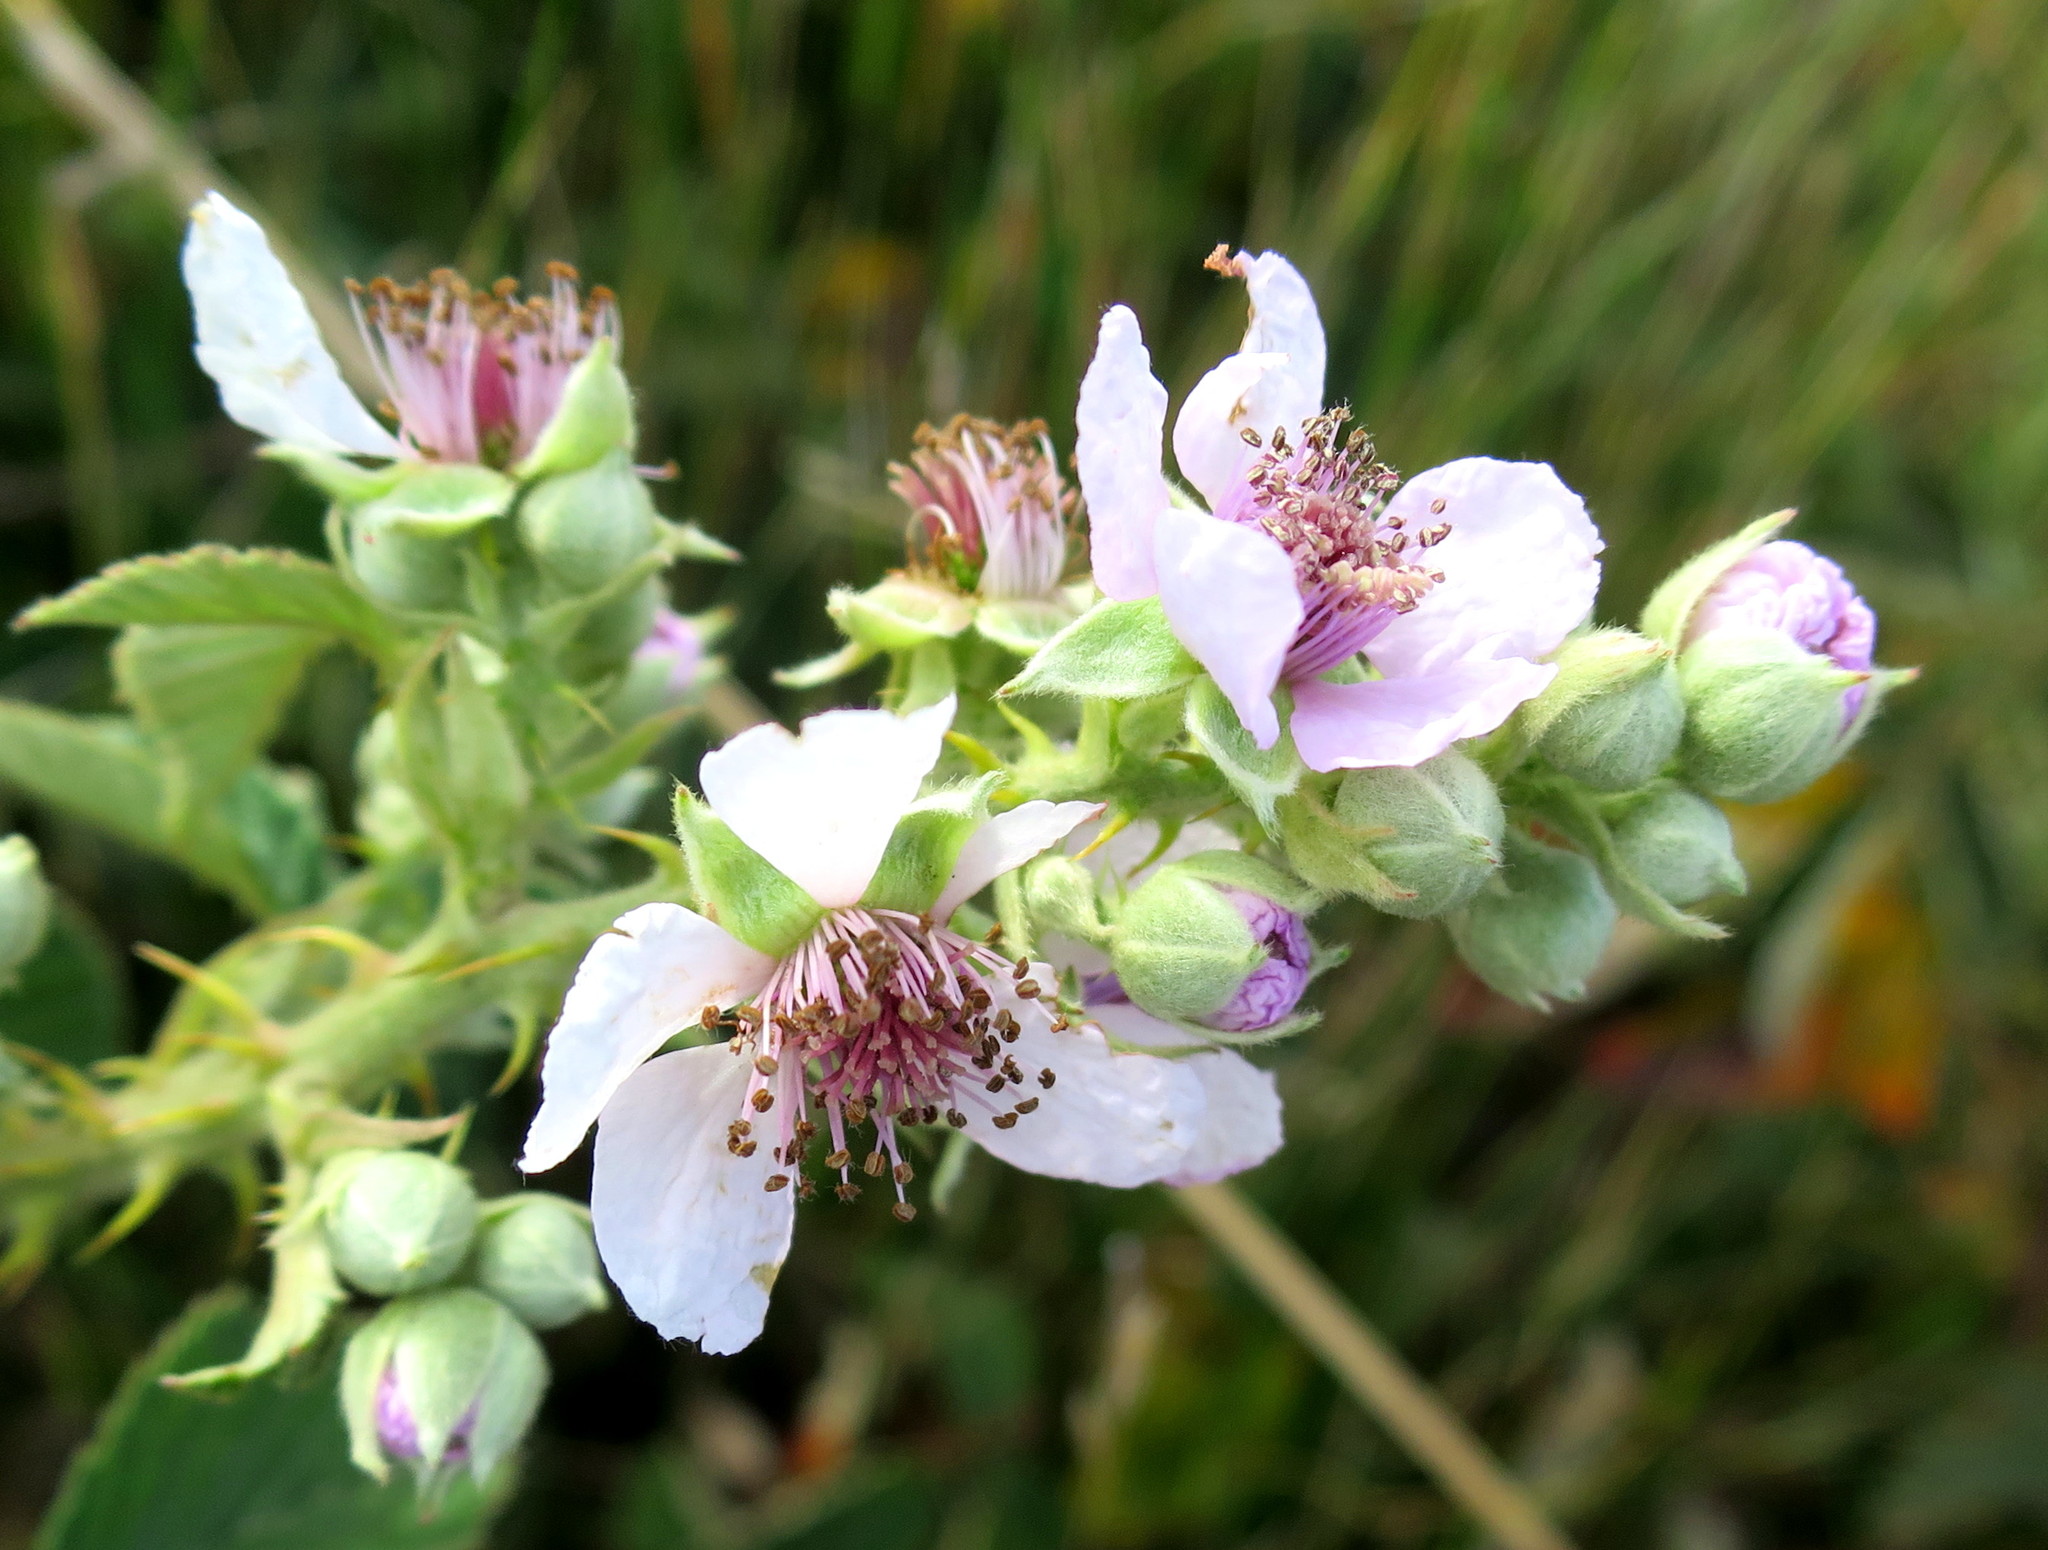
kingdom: Plantae
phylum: Tracheophyta
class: Magnoliopsida
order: Rosales
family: Rosaceae
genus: Rubus
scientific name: Rubus rigidus
